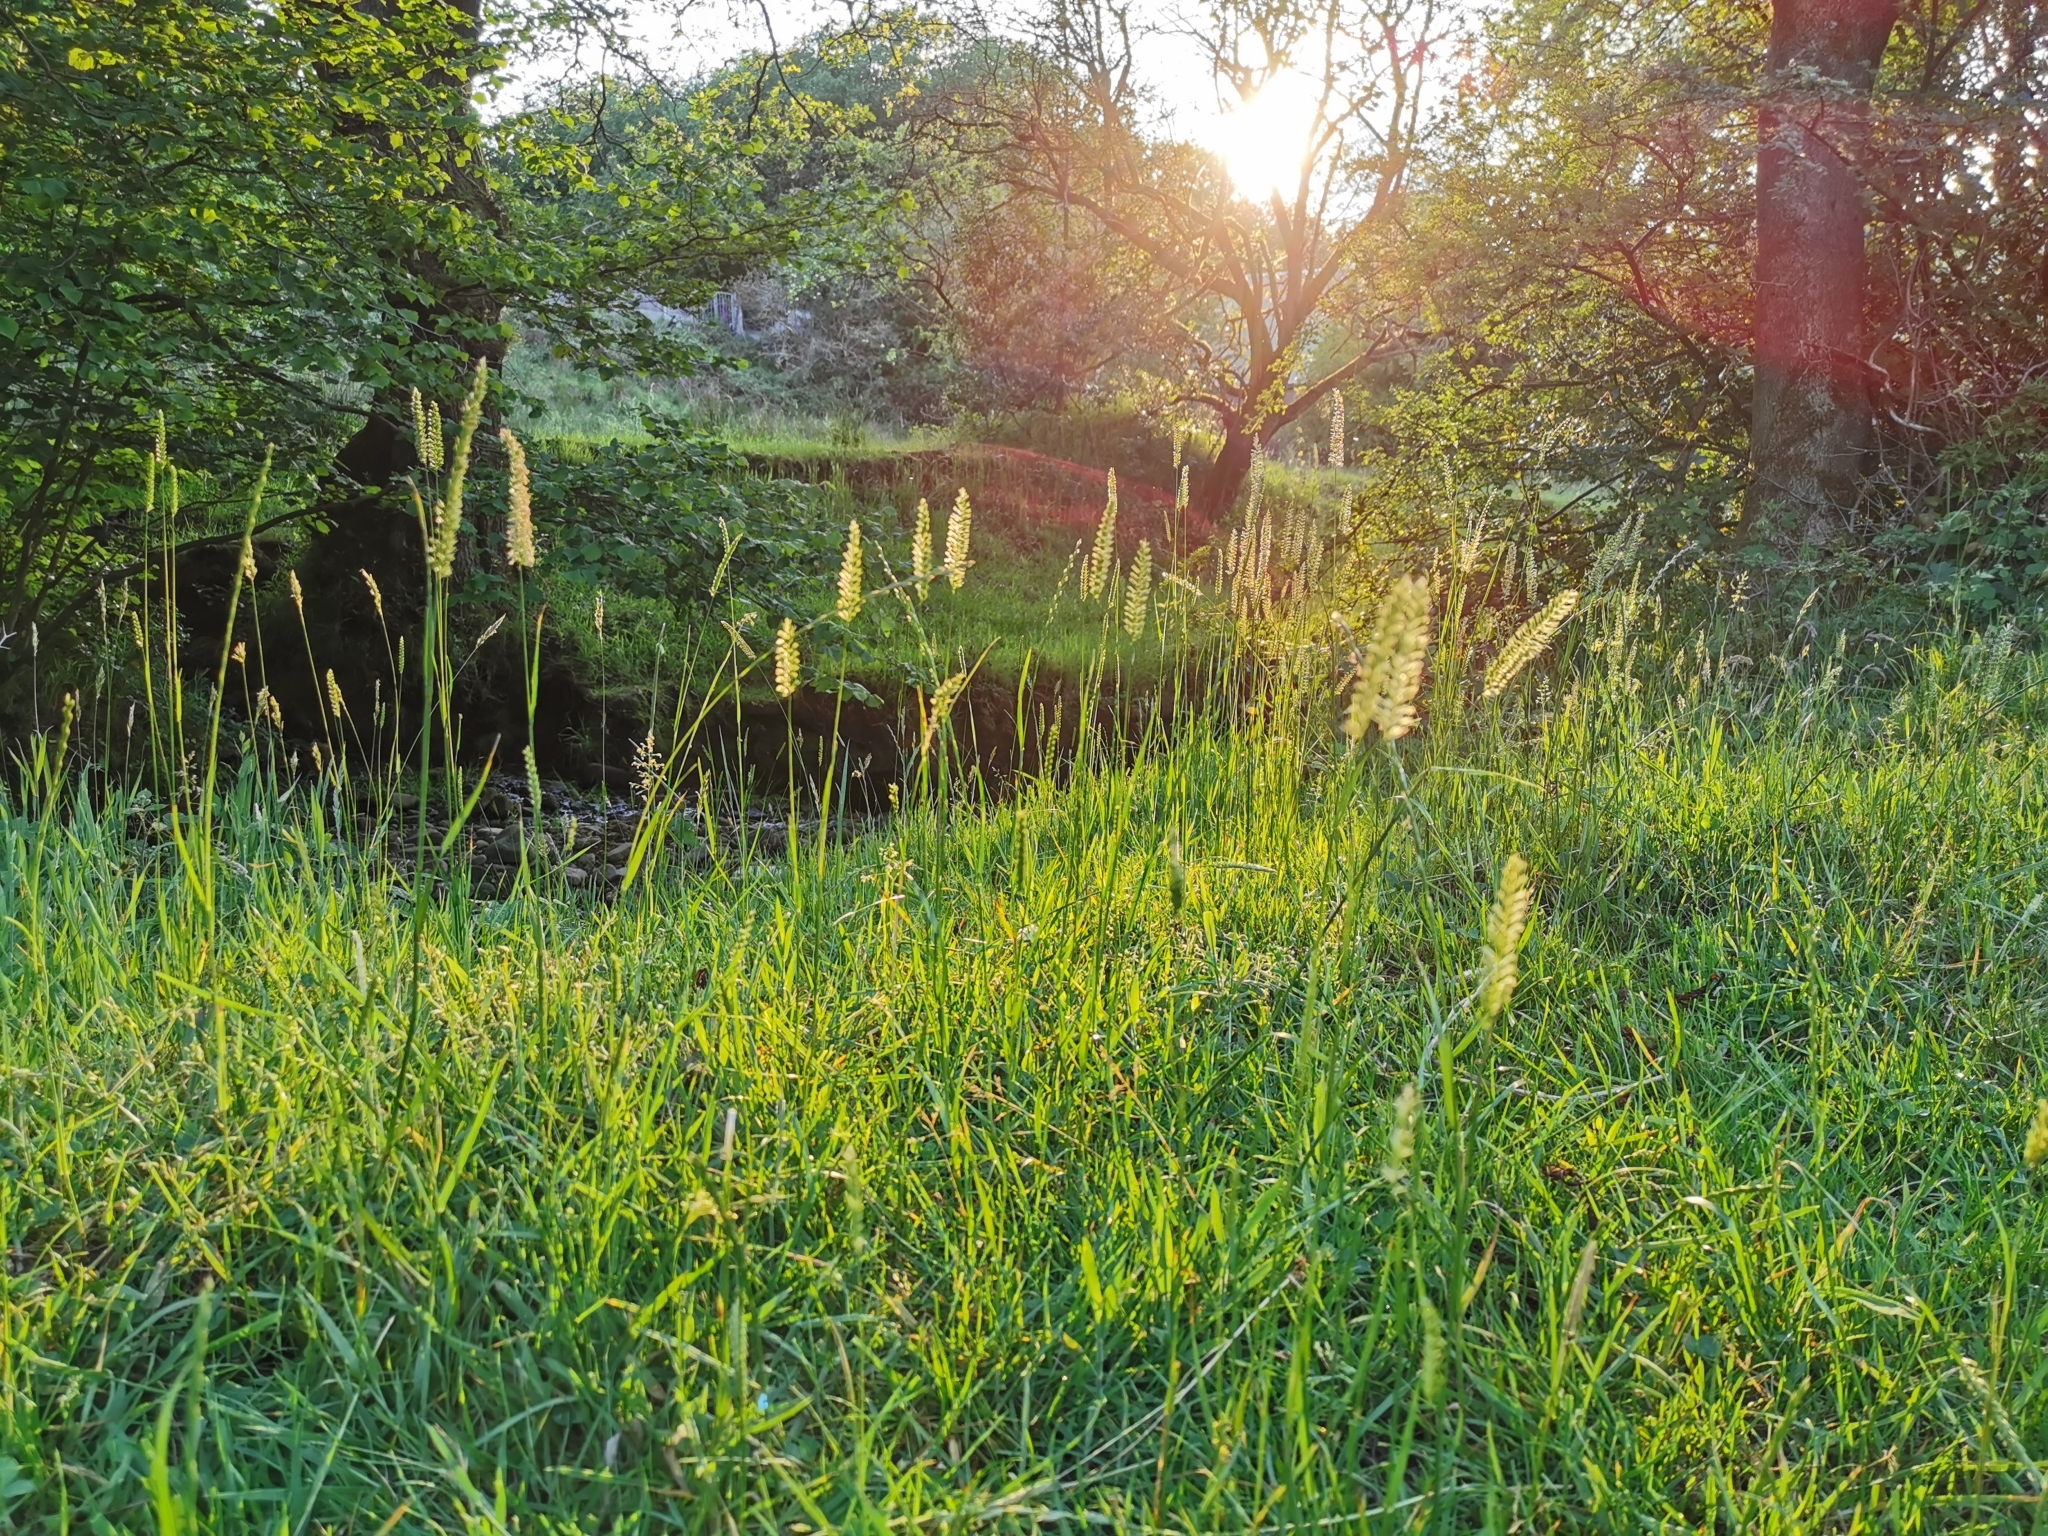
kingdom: Plantae
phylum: Tracheophyta
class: Liliopsida
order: Poales
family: Poaceae
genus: Cynosurus
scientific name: Cynosurus cristatus
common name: Crested dog's-tail
